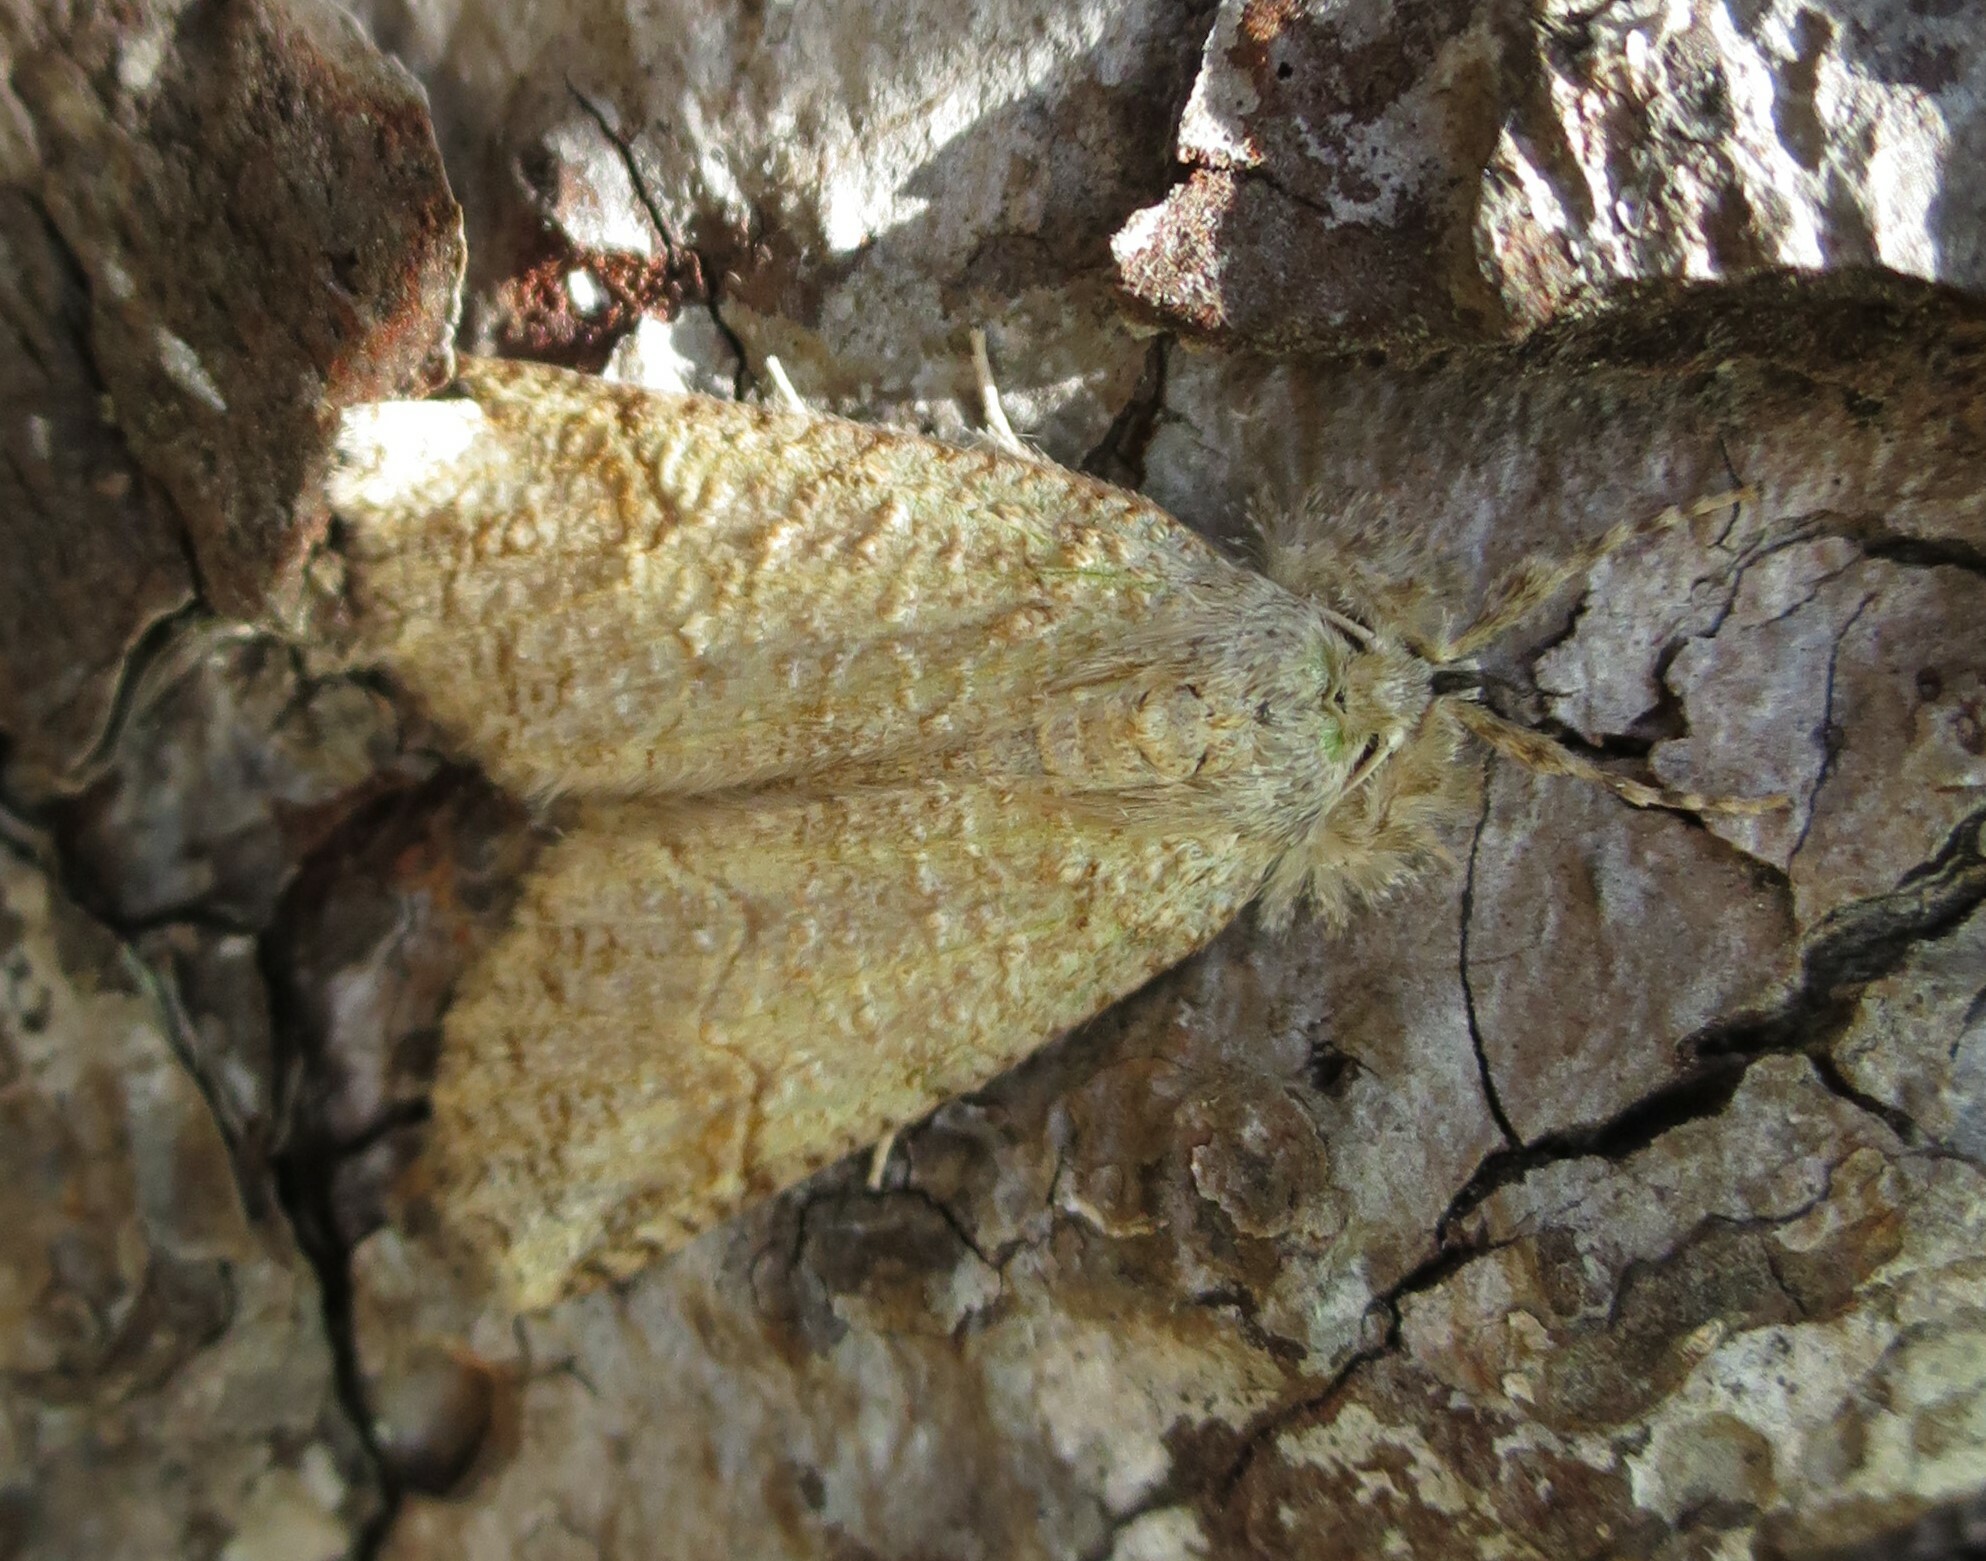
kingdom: Animalia
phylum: Arthropoda
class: Insecta
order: Lepidoptera
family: Geometridae
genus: Declana
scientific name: Declana floccosa
